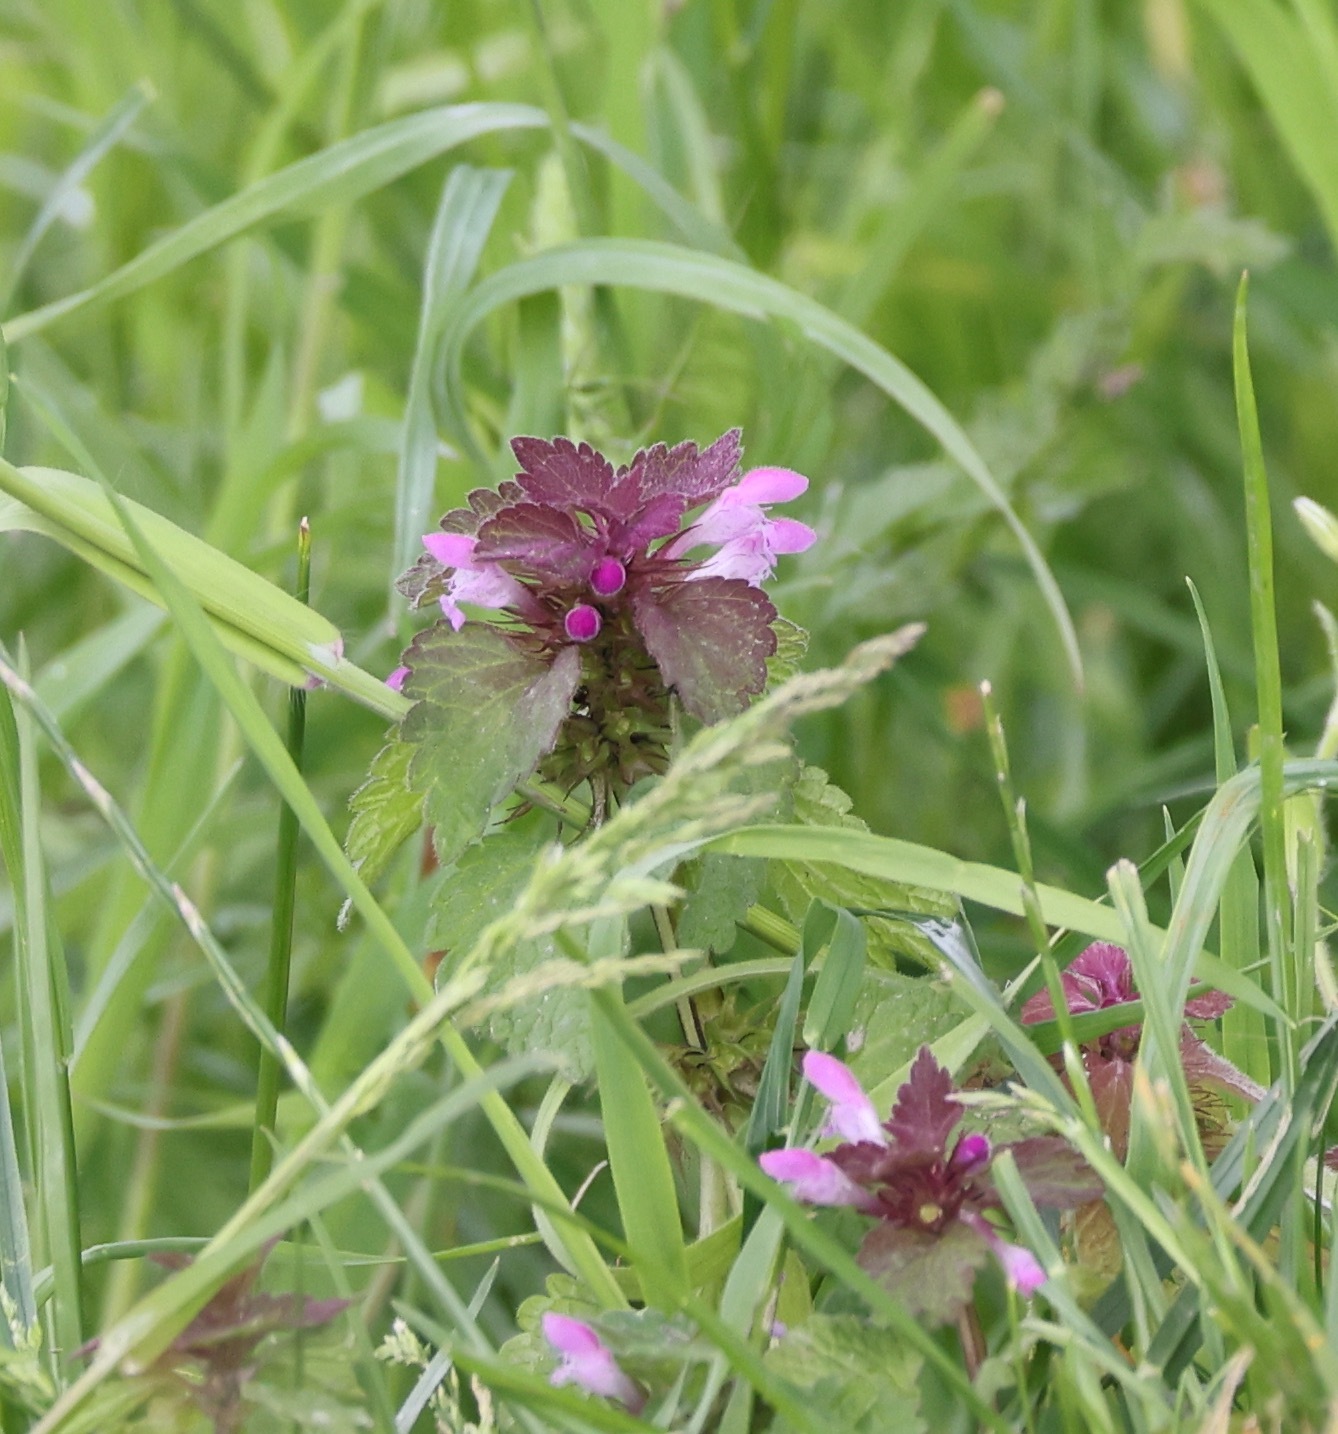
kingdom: Plantae
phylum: Tracheophyta
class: Magnoliopsida
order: Lamiales
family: Lamiaceae
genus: Lamium
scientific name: Lamium purpureum
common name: Red dead-nettle
